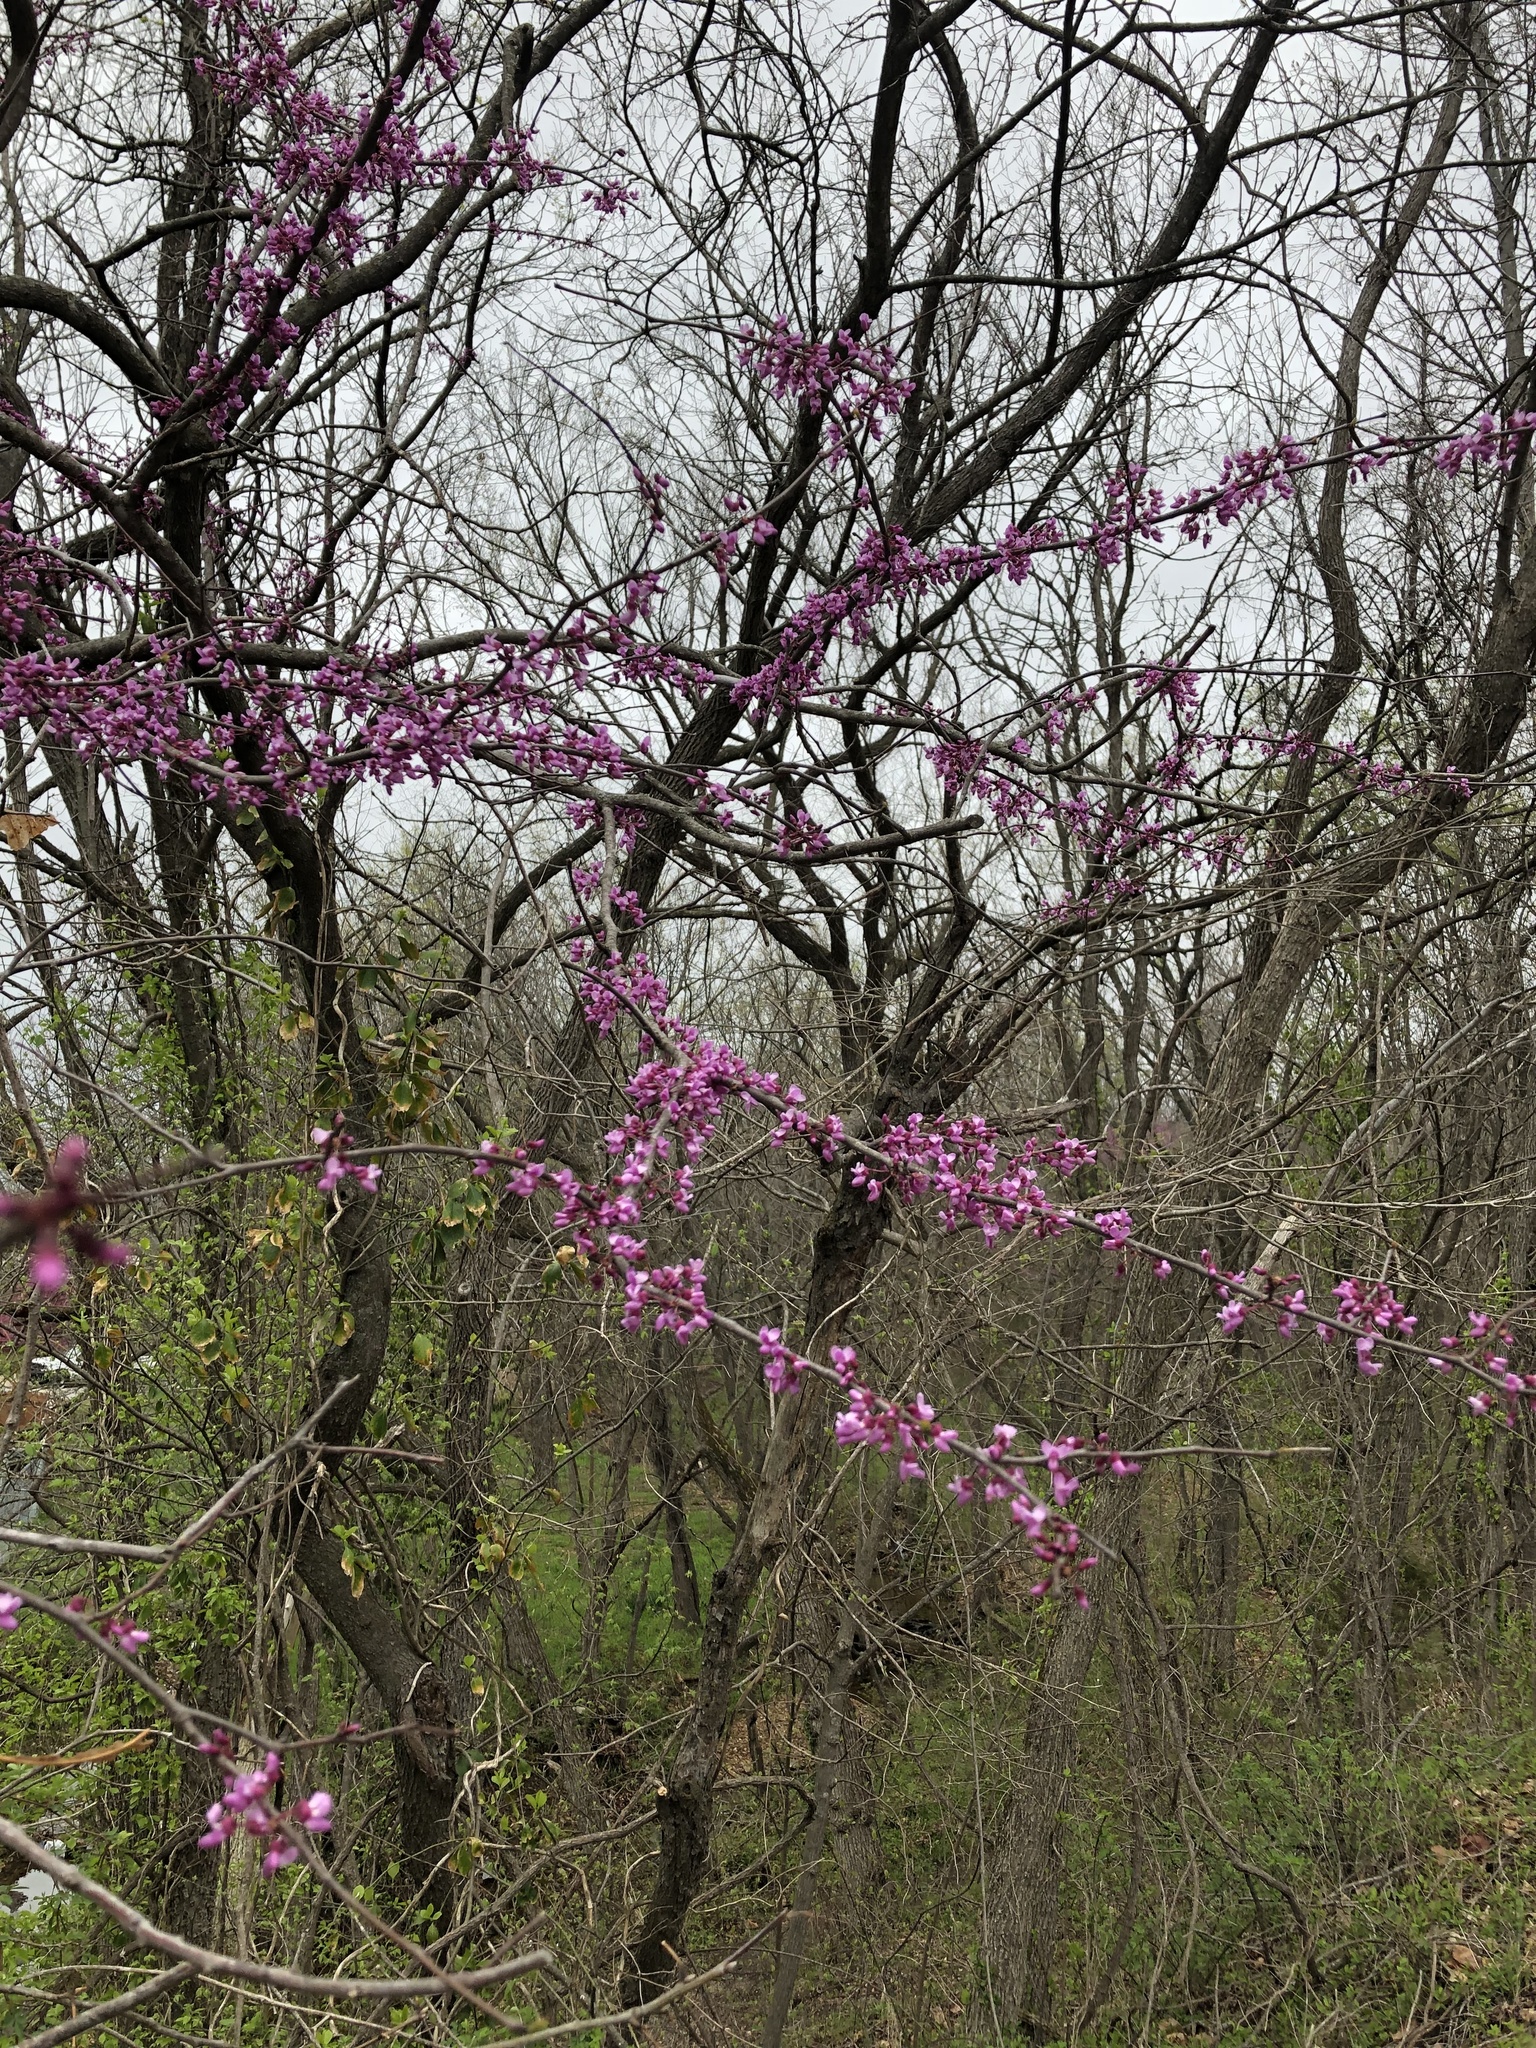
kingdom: Plantae
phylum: Tracheophyta
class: Magnoliopsida
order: Fabales
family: Fabaceae
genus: Cercis
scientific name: Cercis canadensis
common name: Eastern redbud
